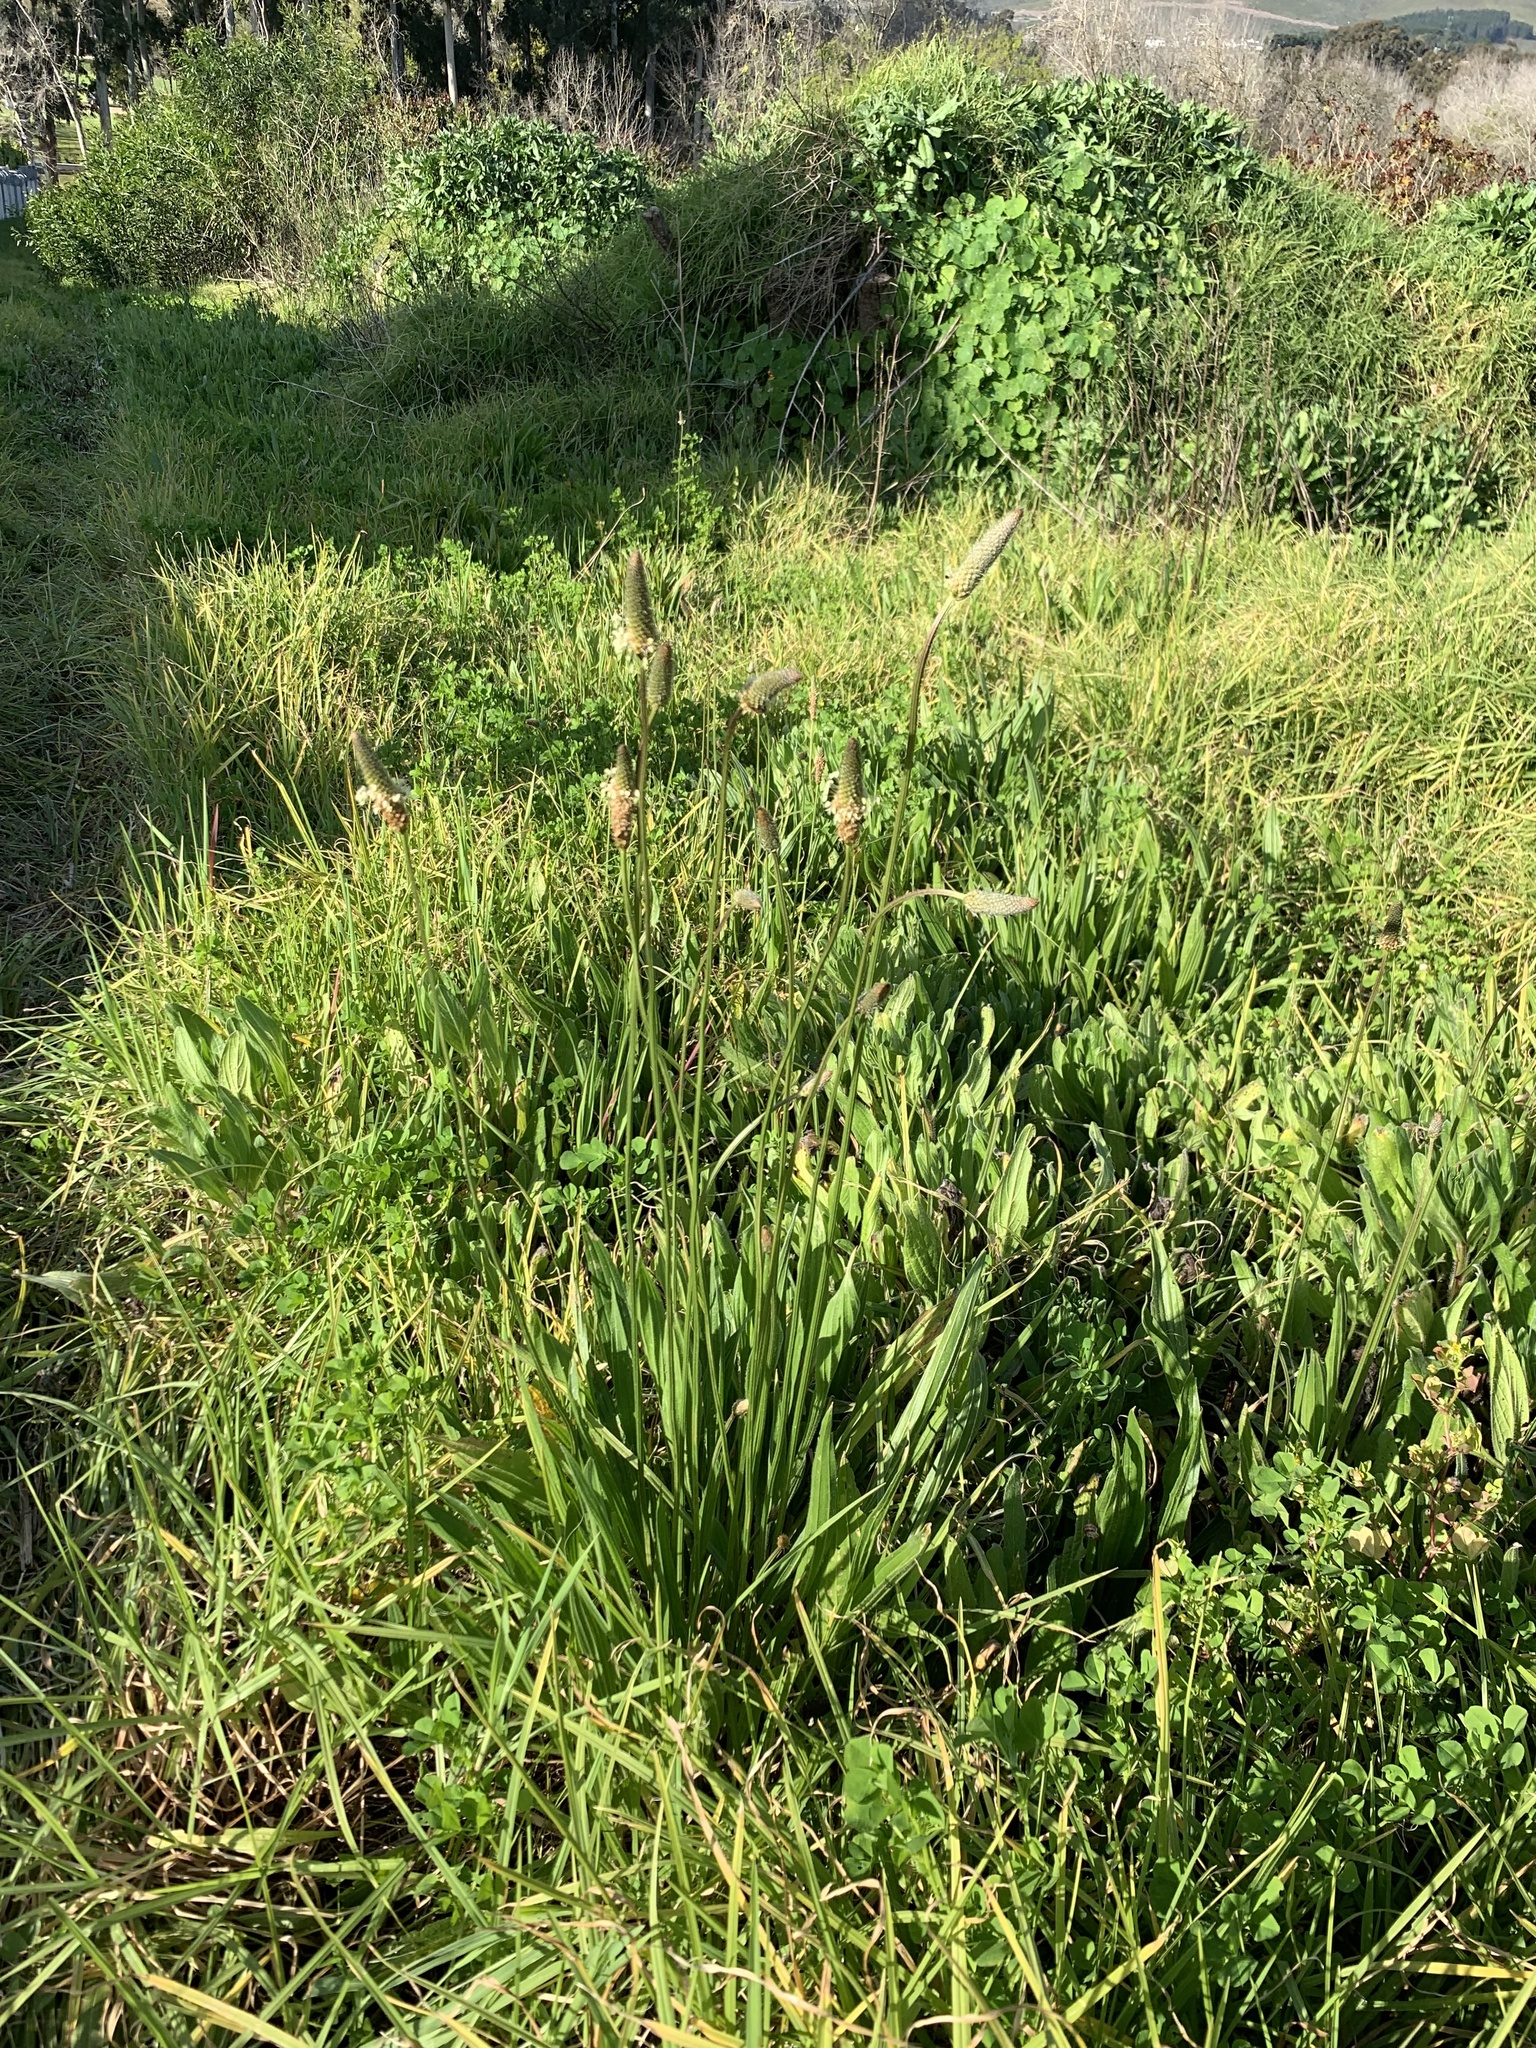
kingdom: Plantae
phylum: Tracheophyta
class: Magnoliopsida
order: Lamiales
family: Plantaginaceae
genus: Plantago
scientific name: Plantago lanceolata
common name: Ribwort plantain
